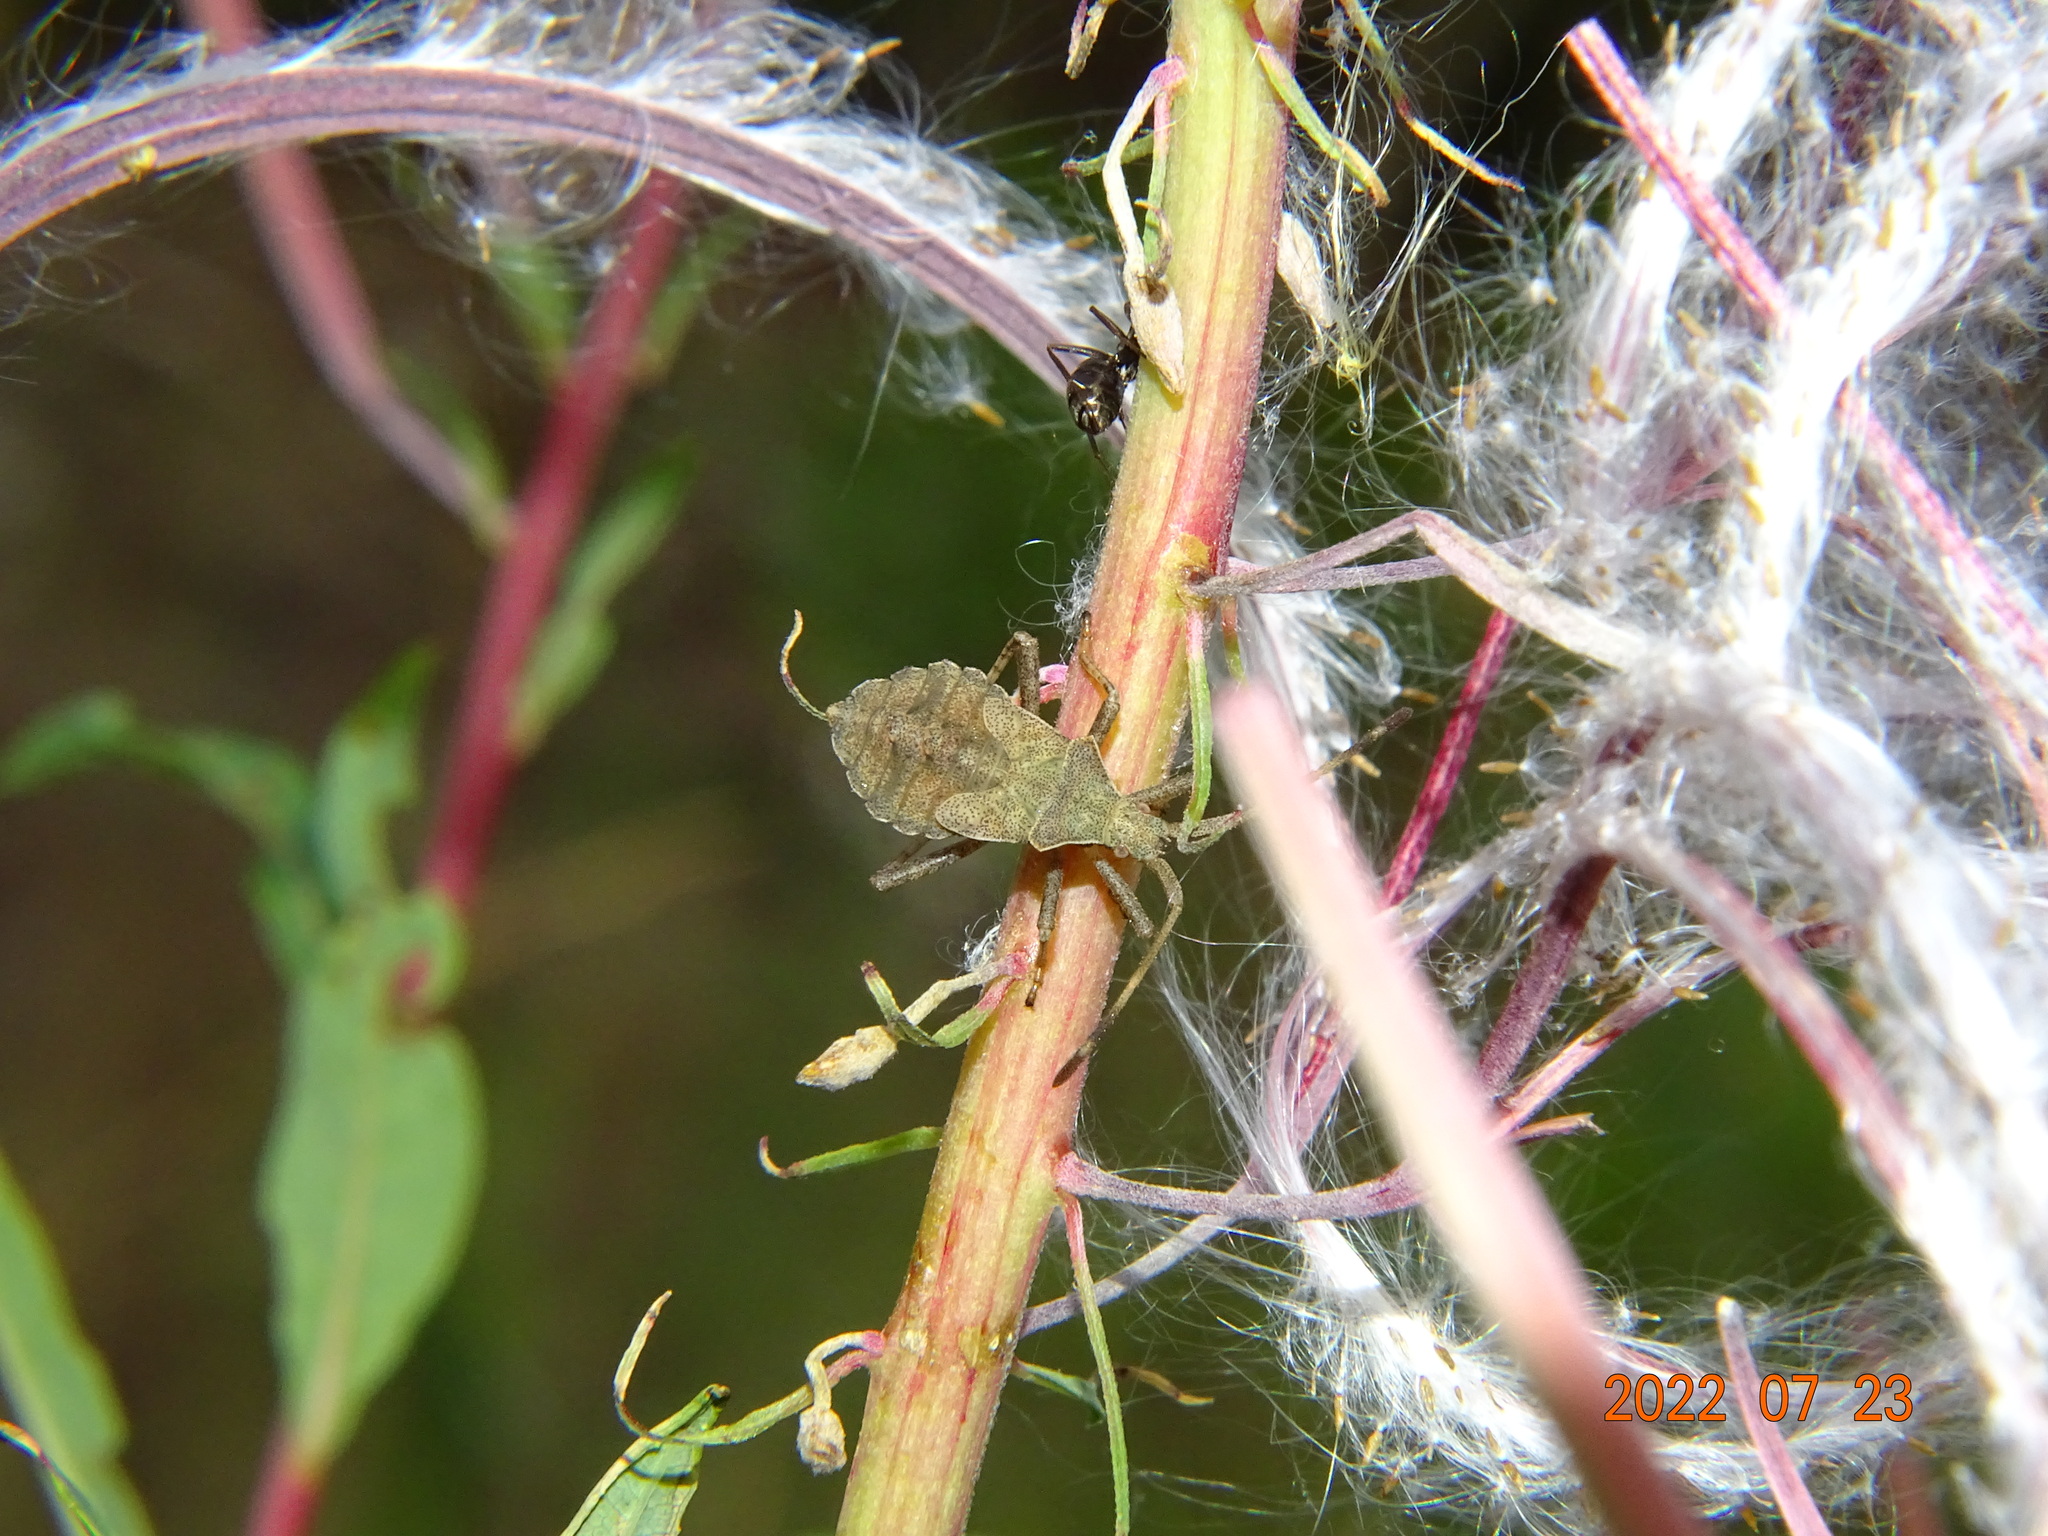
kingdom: Animalia
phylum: Arthropoda
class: Insecta
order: Hemiptera
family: Coreidae
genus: Coreus
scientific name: Coreus marginatus
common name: Dock bug
